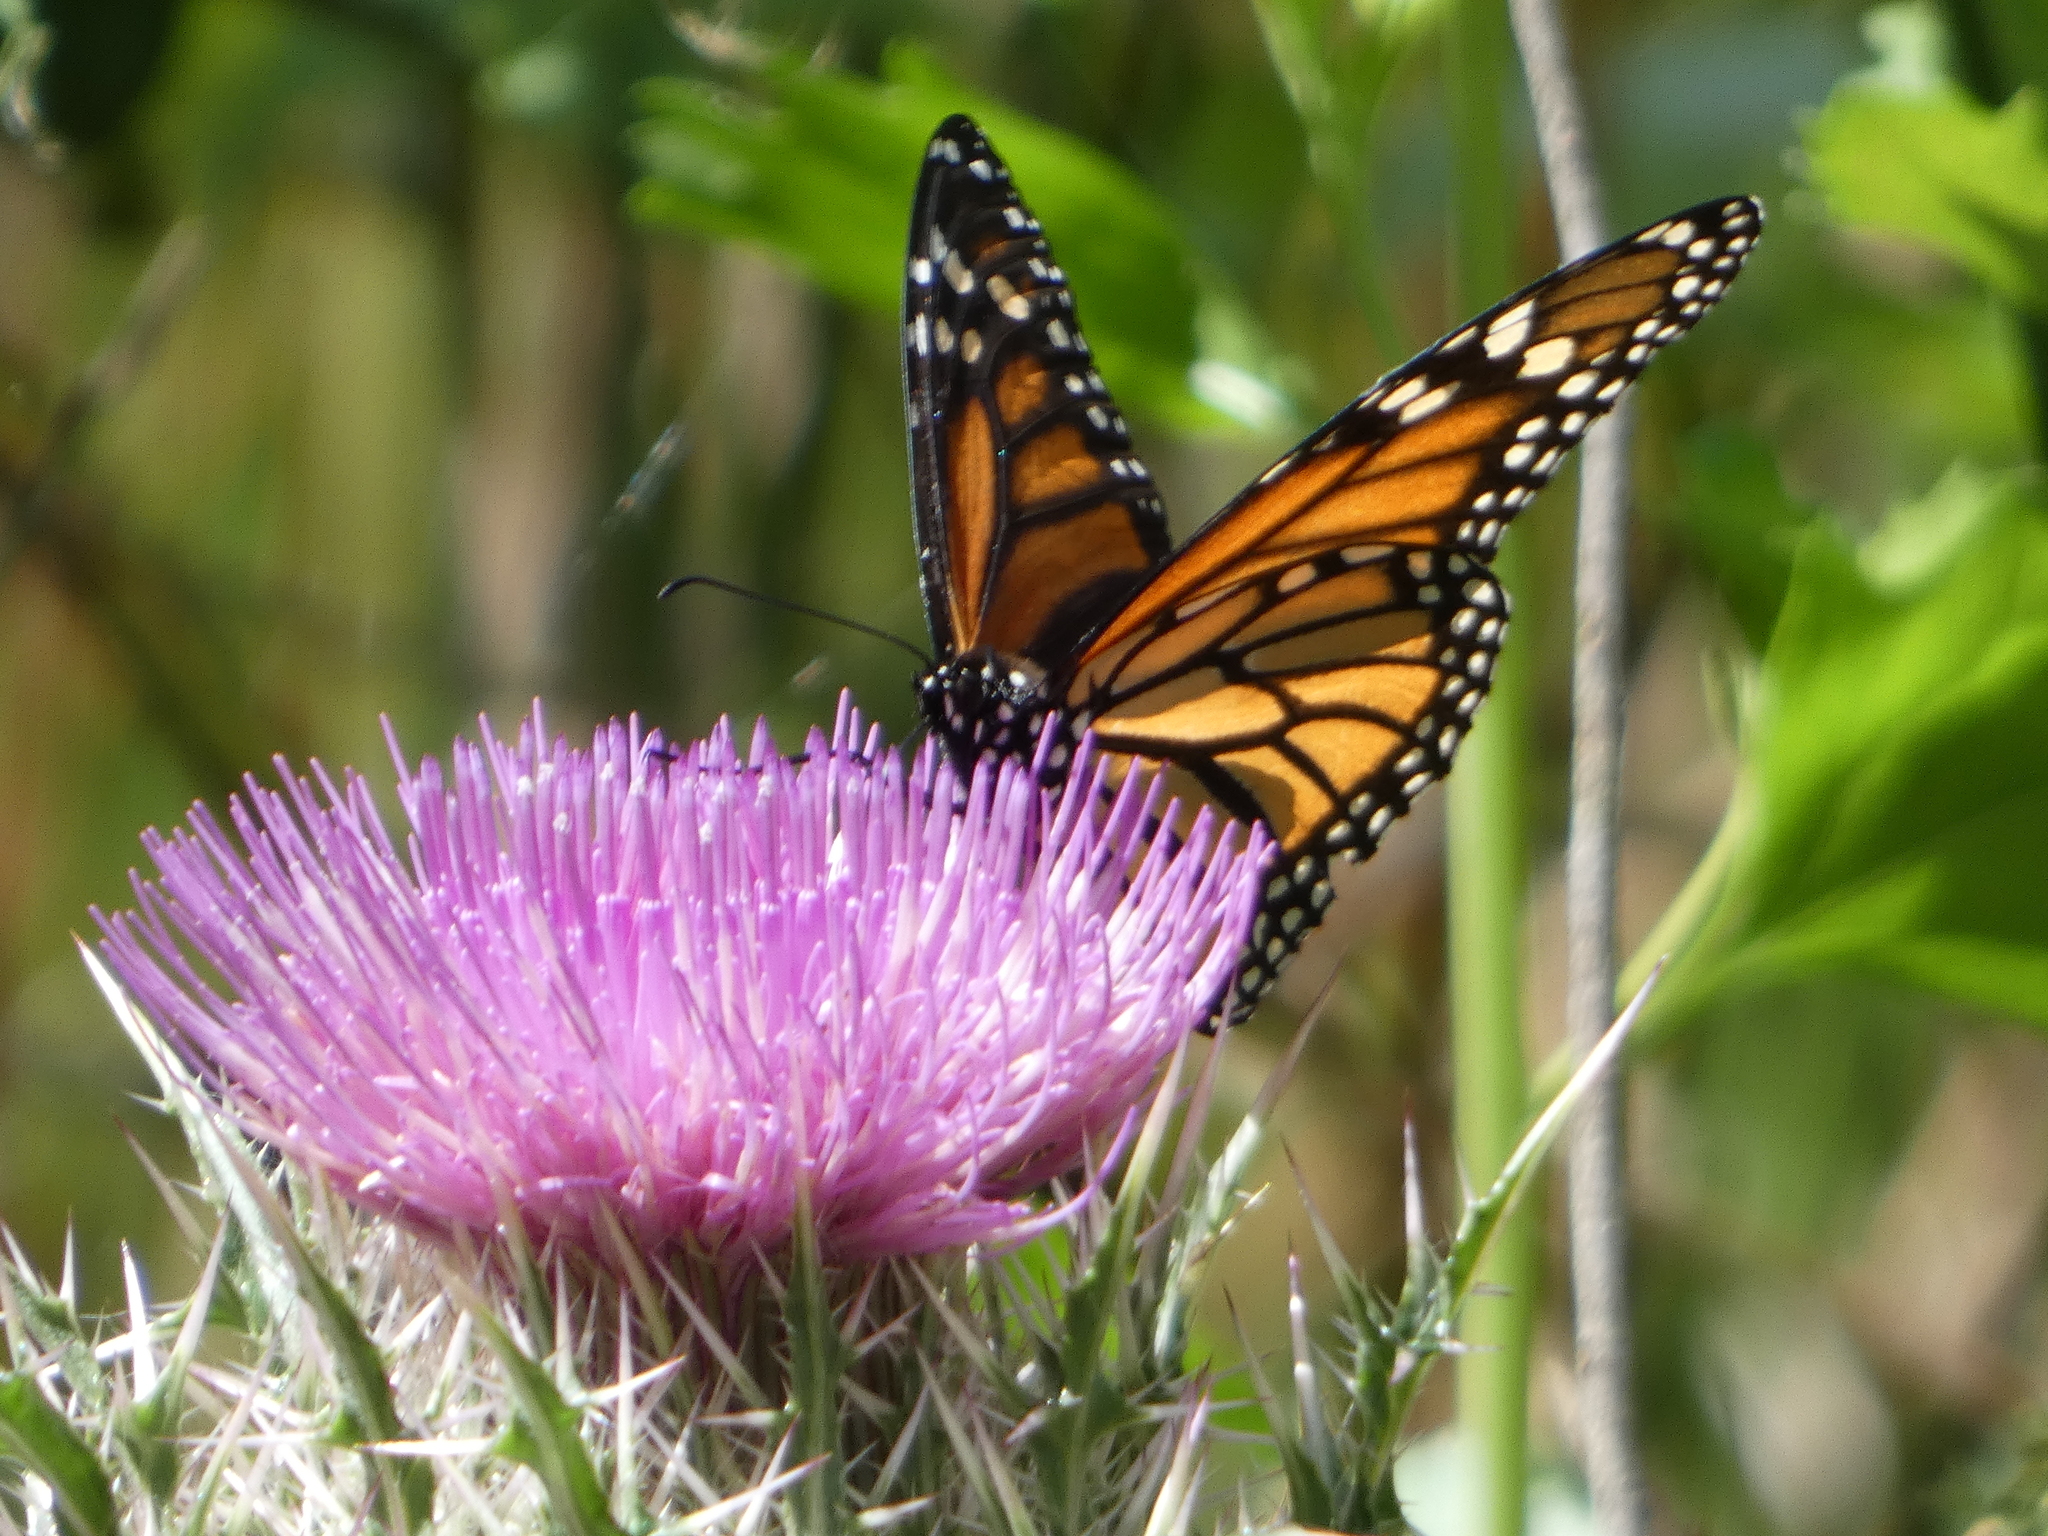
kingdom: Animalia
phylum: Arthropoda
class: Insecta
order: Lepidoptera
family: Nymphalidae
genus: Danaus
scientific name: Danaus plexippus
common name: Monarch
